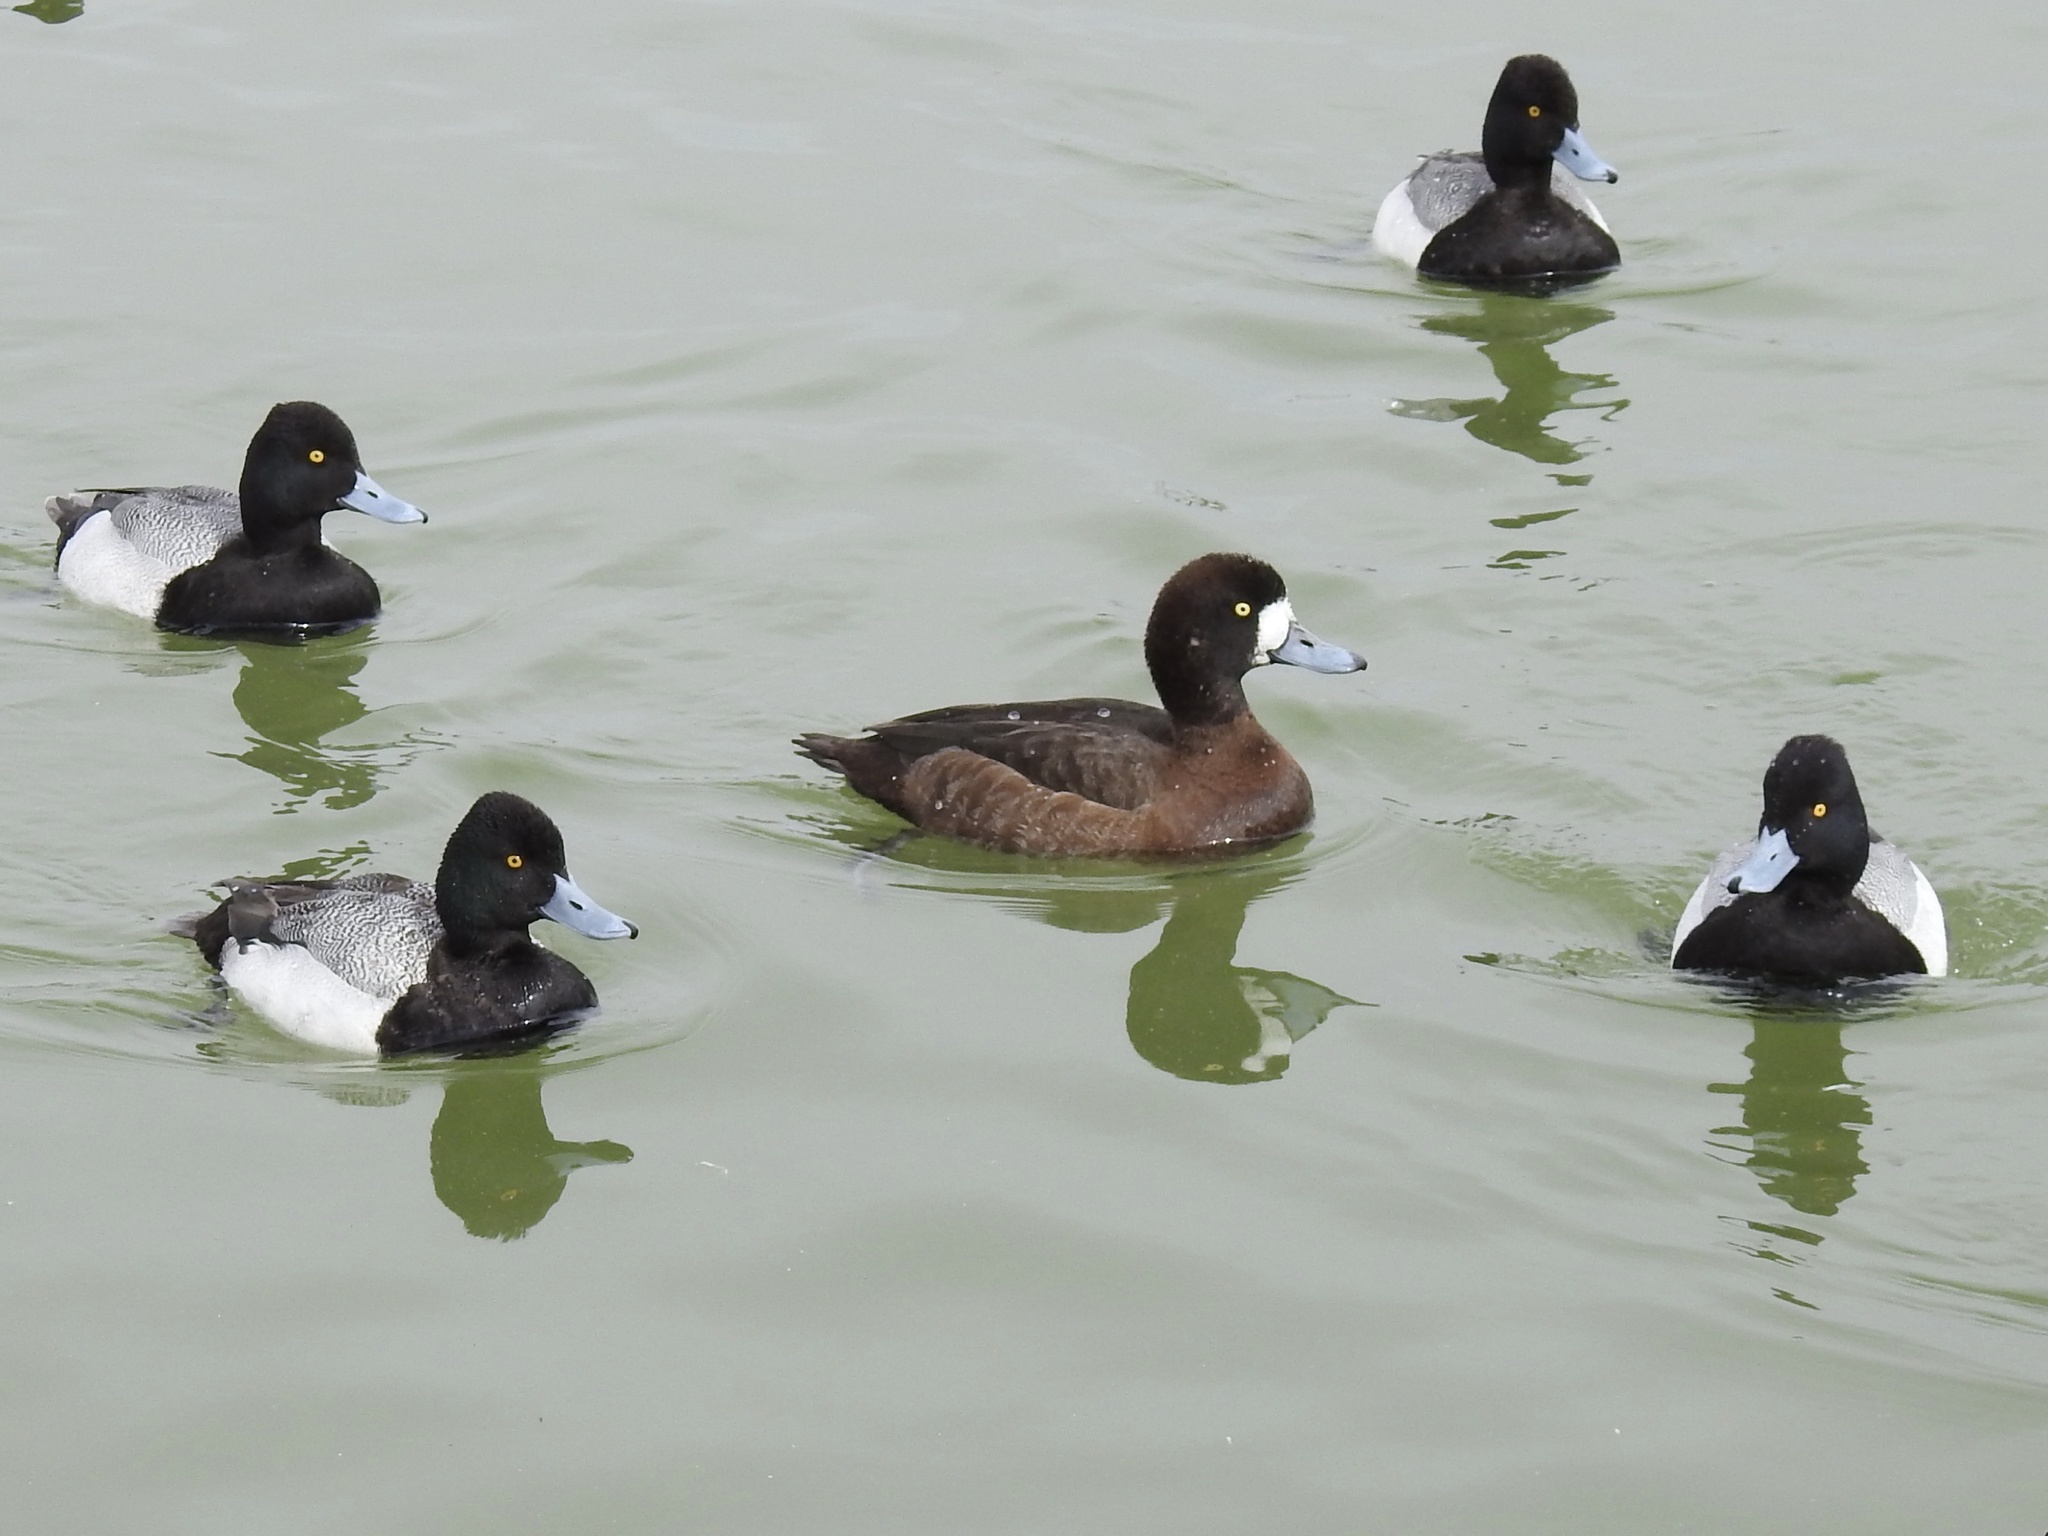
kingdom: Animalia
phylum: Chordata
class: Aves
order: Anseriformes
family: Anatidae
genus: Aythya
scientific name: Aythya affinis
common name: Lesser scaup
